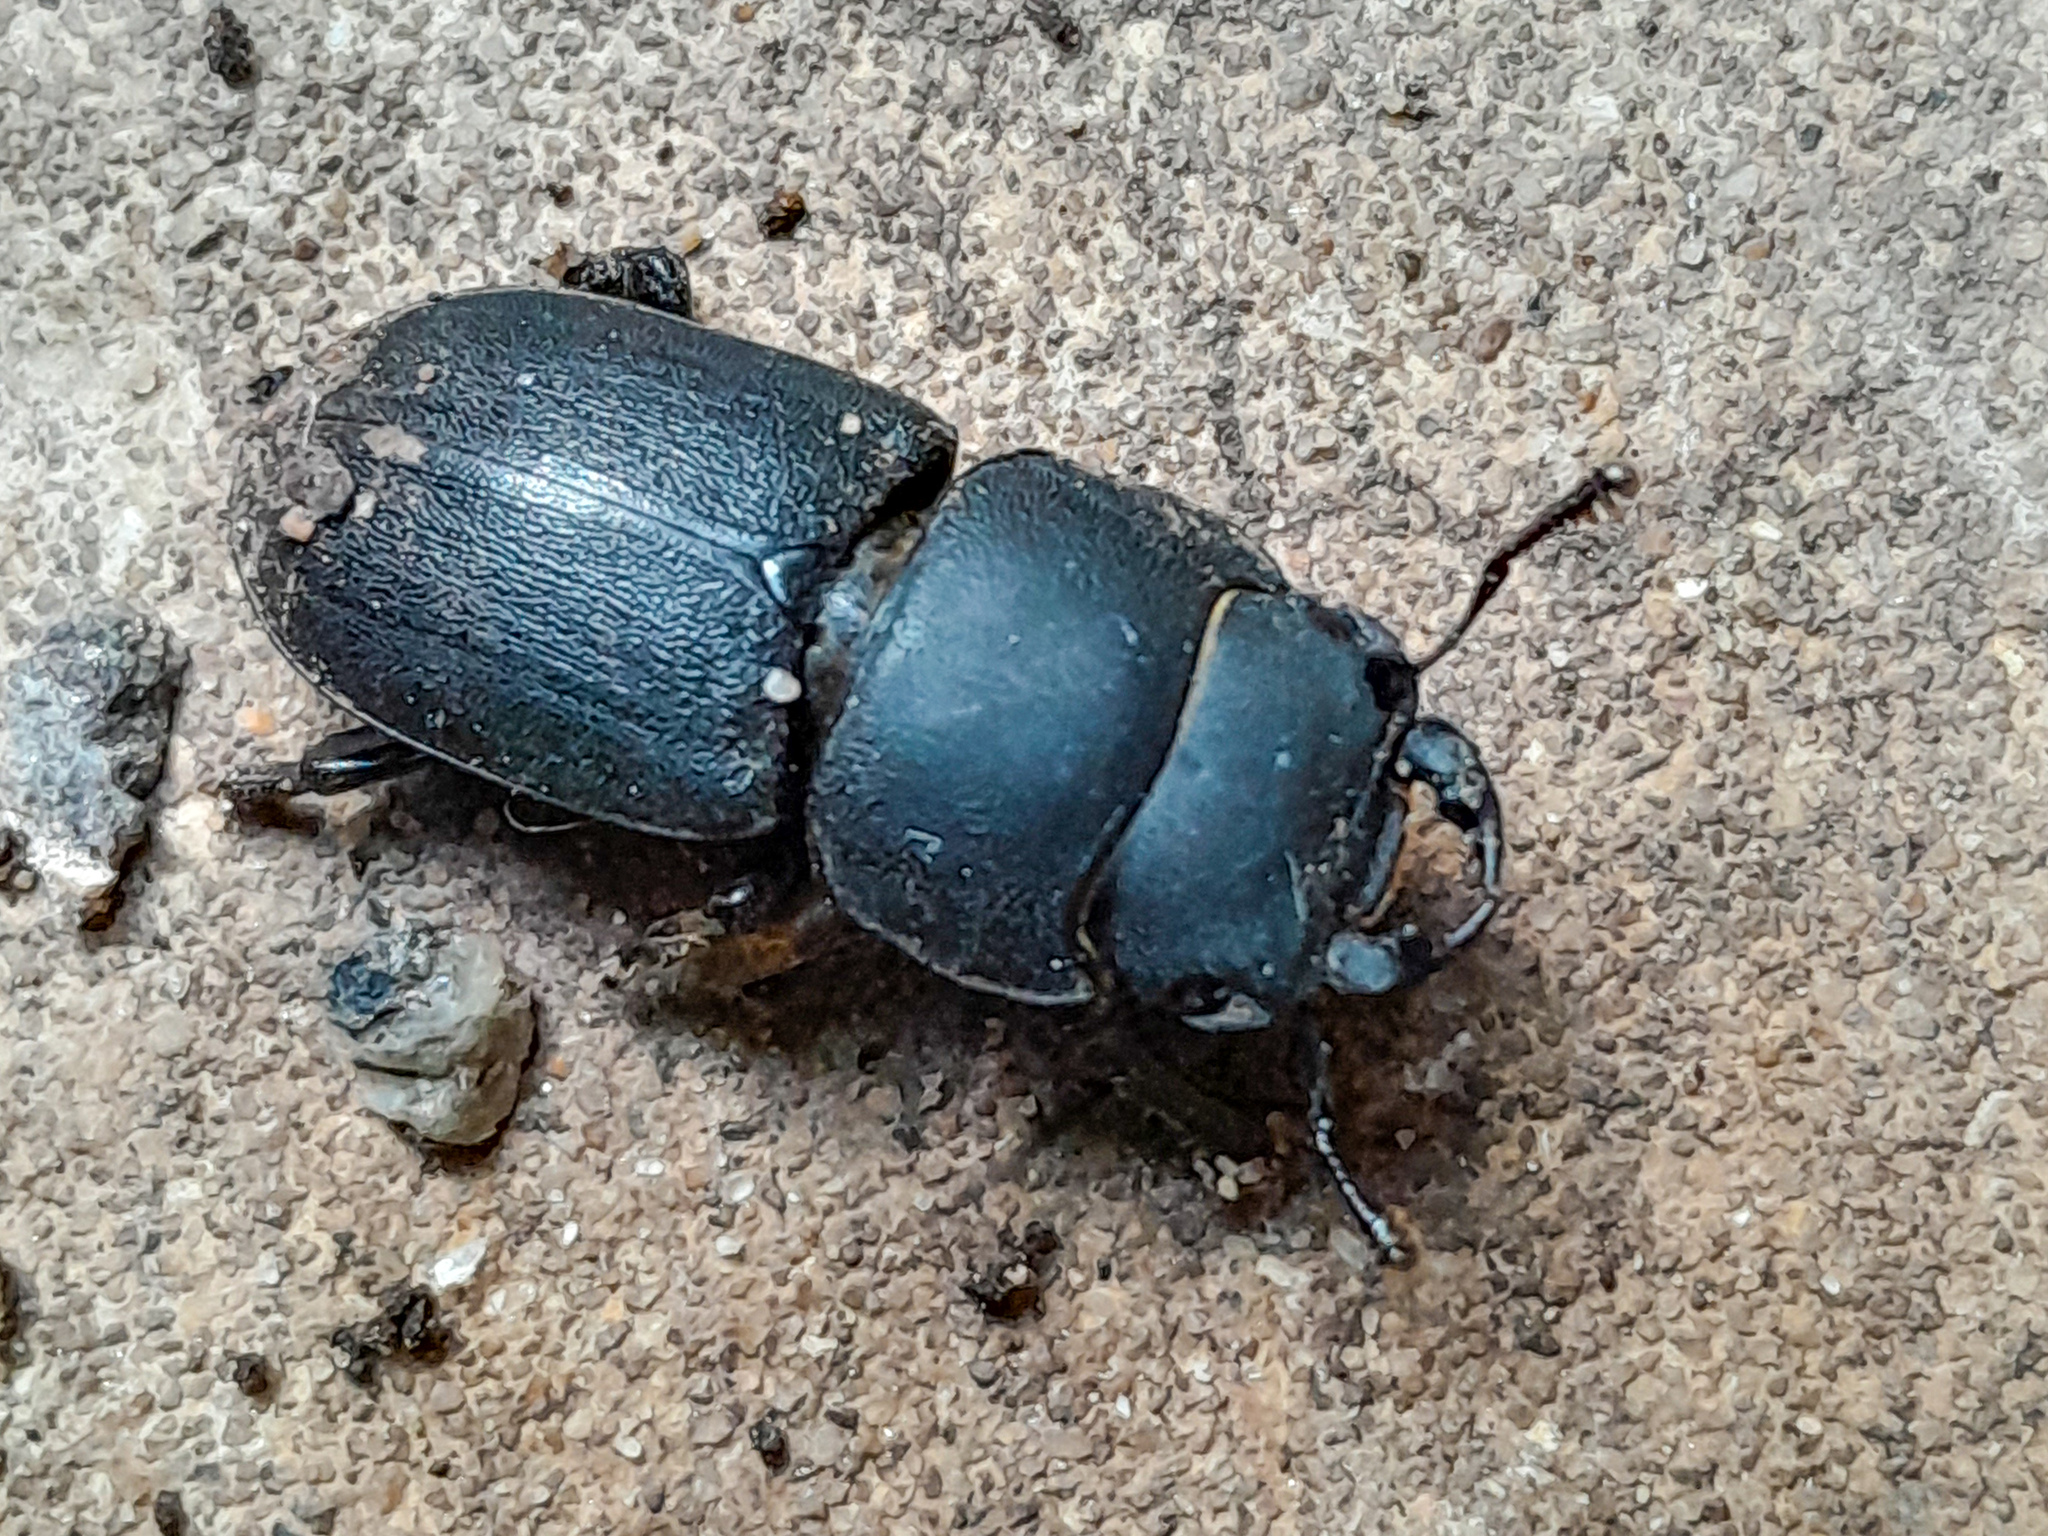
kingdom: Animalia
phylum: Arthropoda
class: Insecta
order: Coleoptera
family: Lucanidae
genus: Dorcus
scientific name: Dorcus parallelipipedus
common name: Lesser stag beetle
